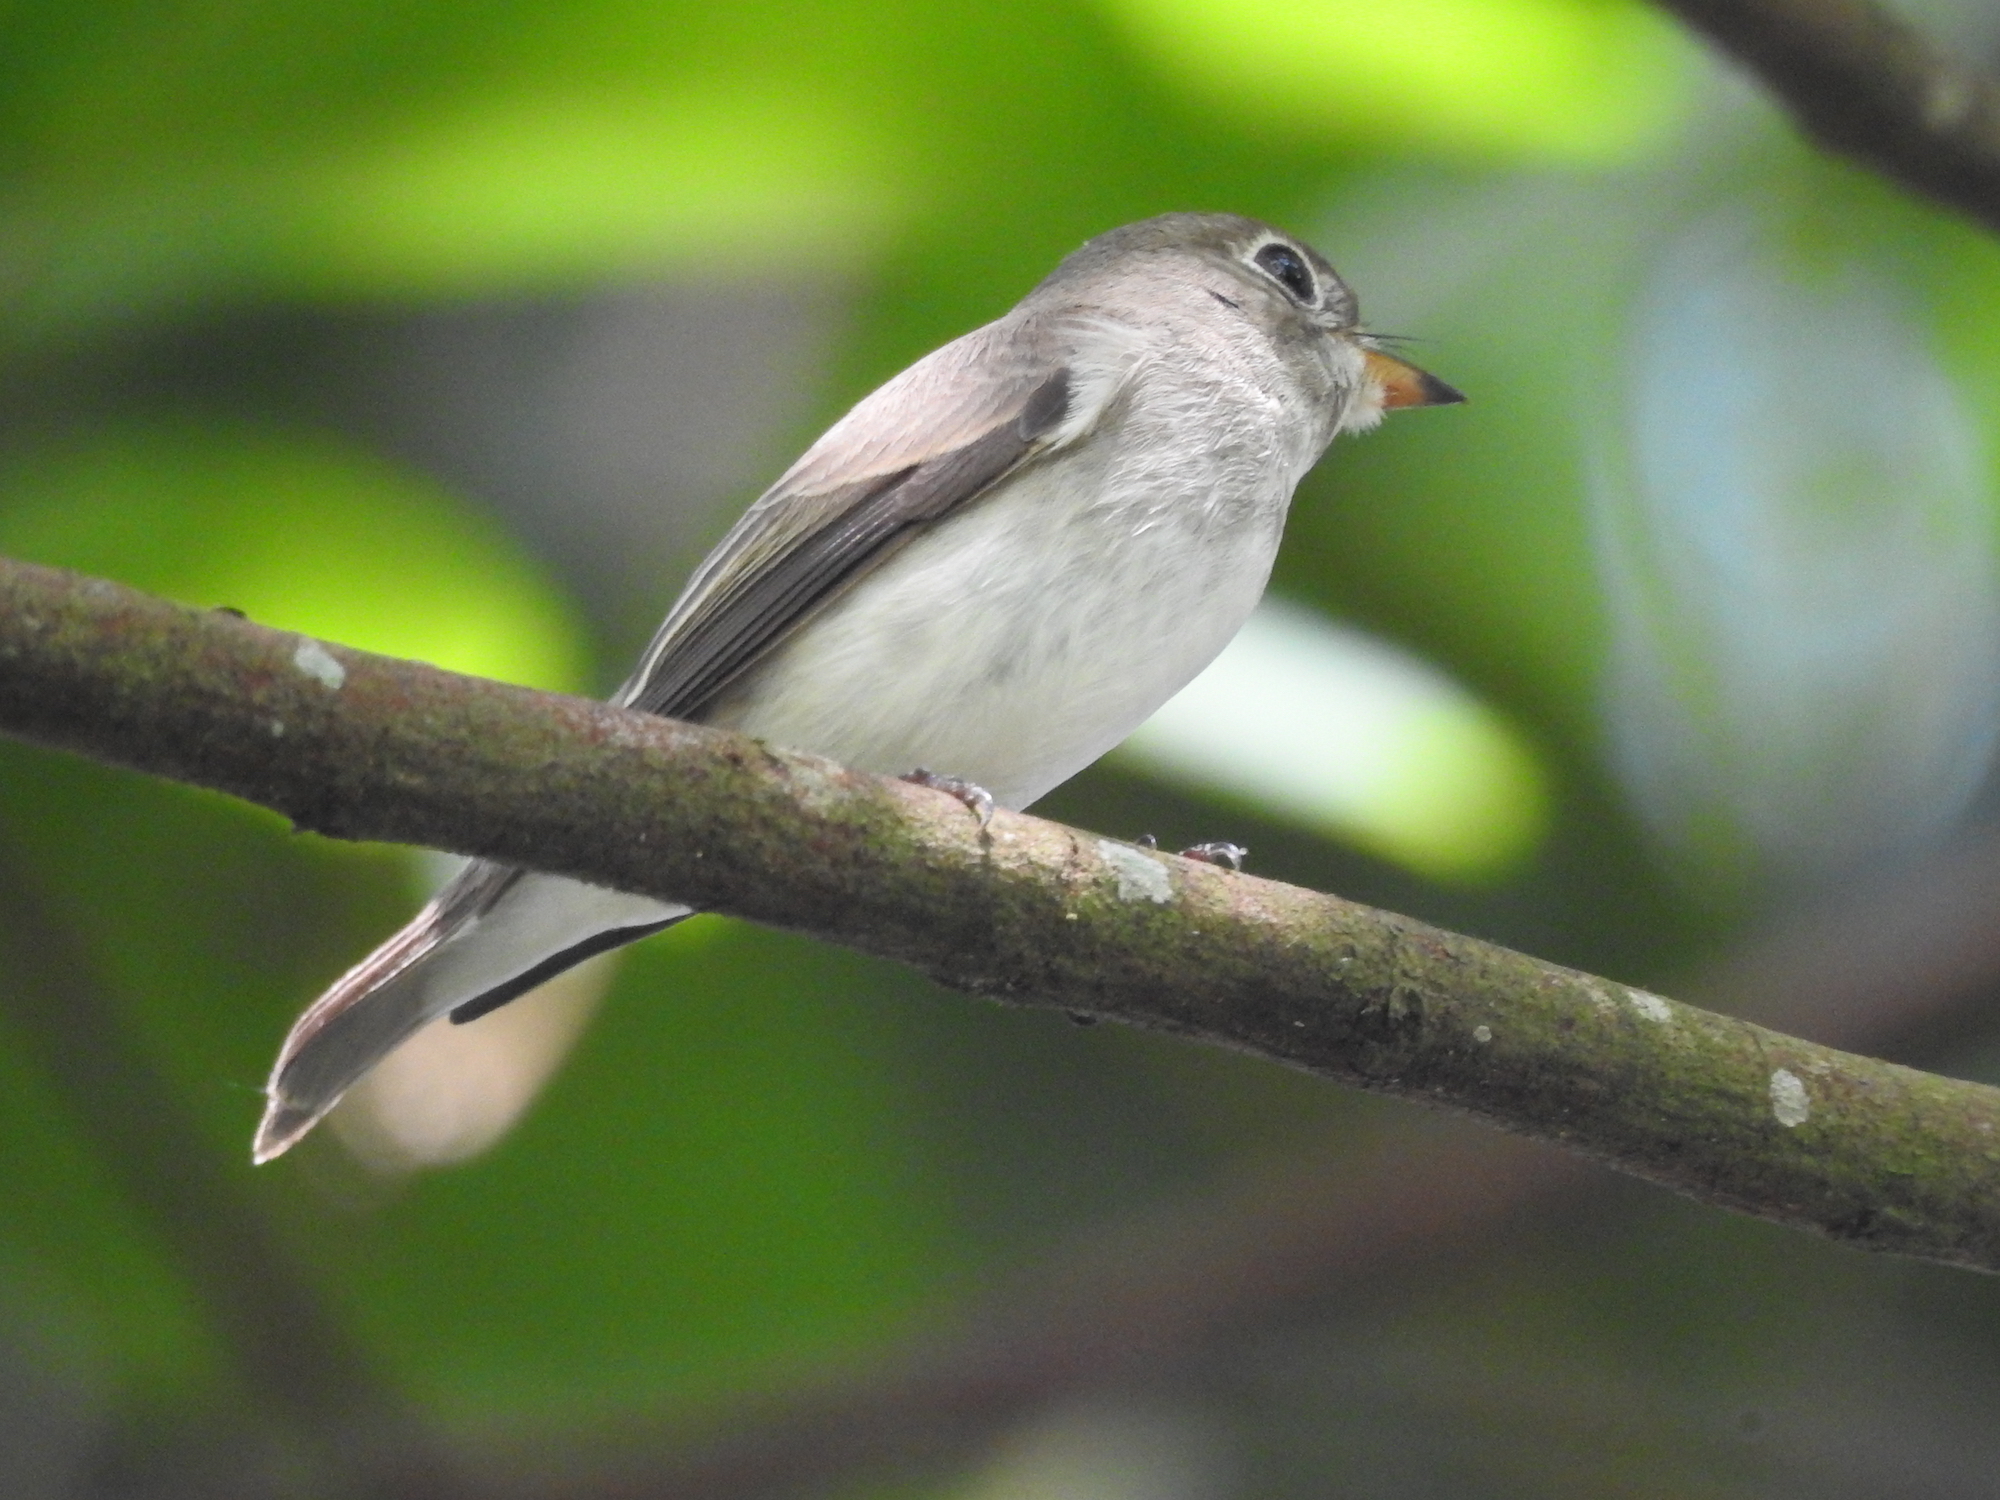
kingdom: Animalia
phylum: Chordata
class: Aves
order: Passeriformes
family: Muscicapidae
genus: Muscicapa
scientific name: Muscicapa latirostris
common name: Asian brown flycatcher
